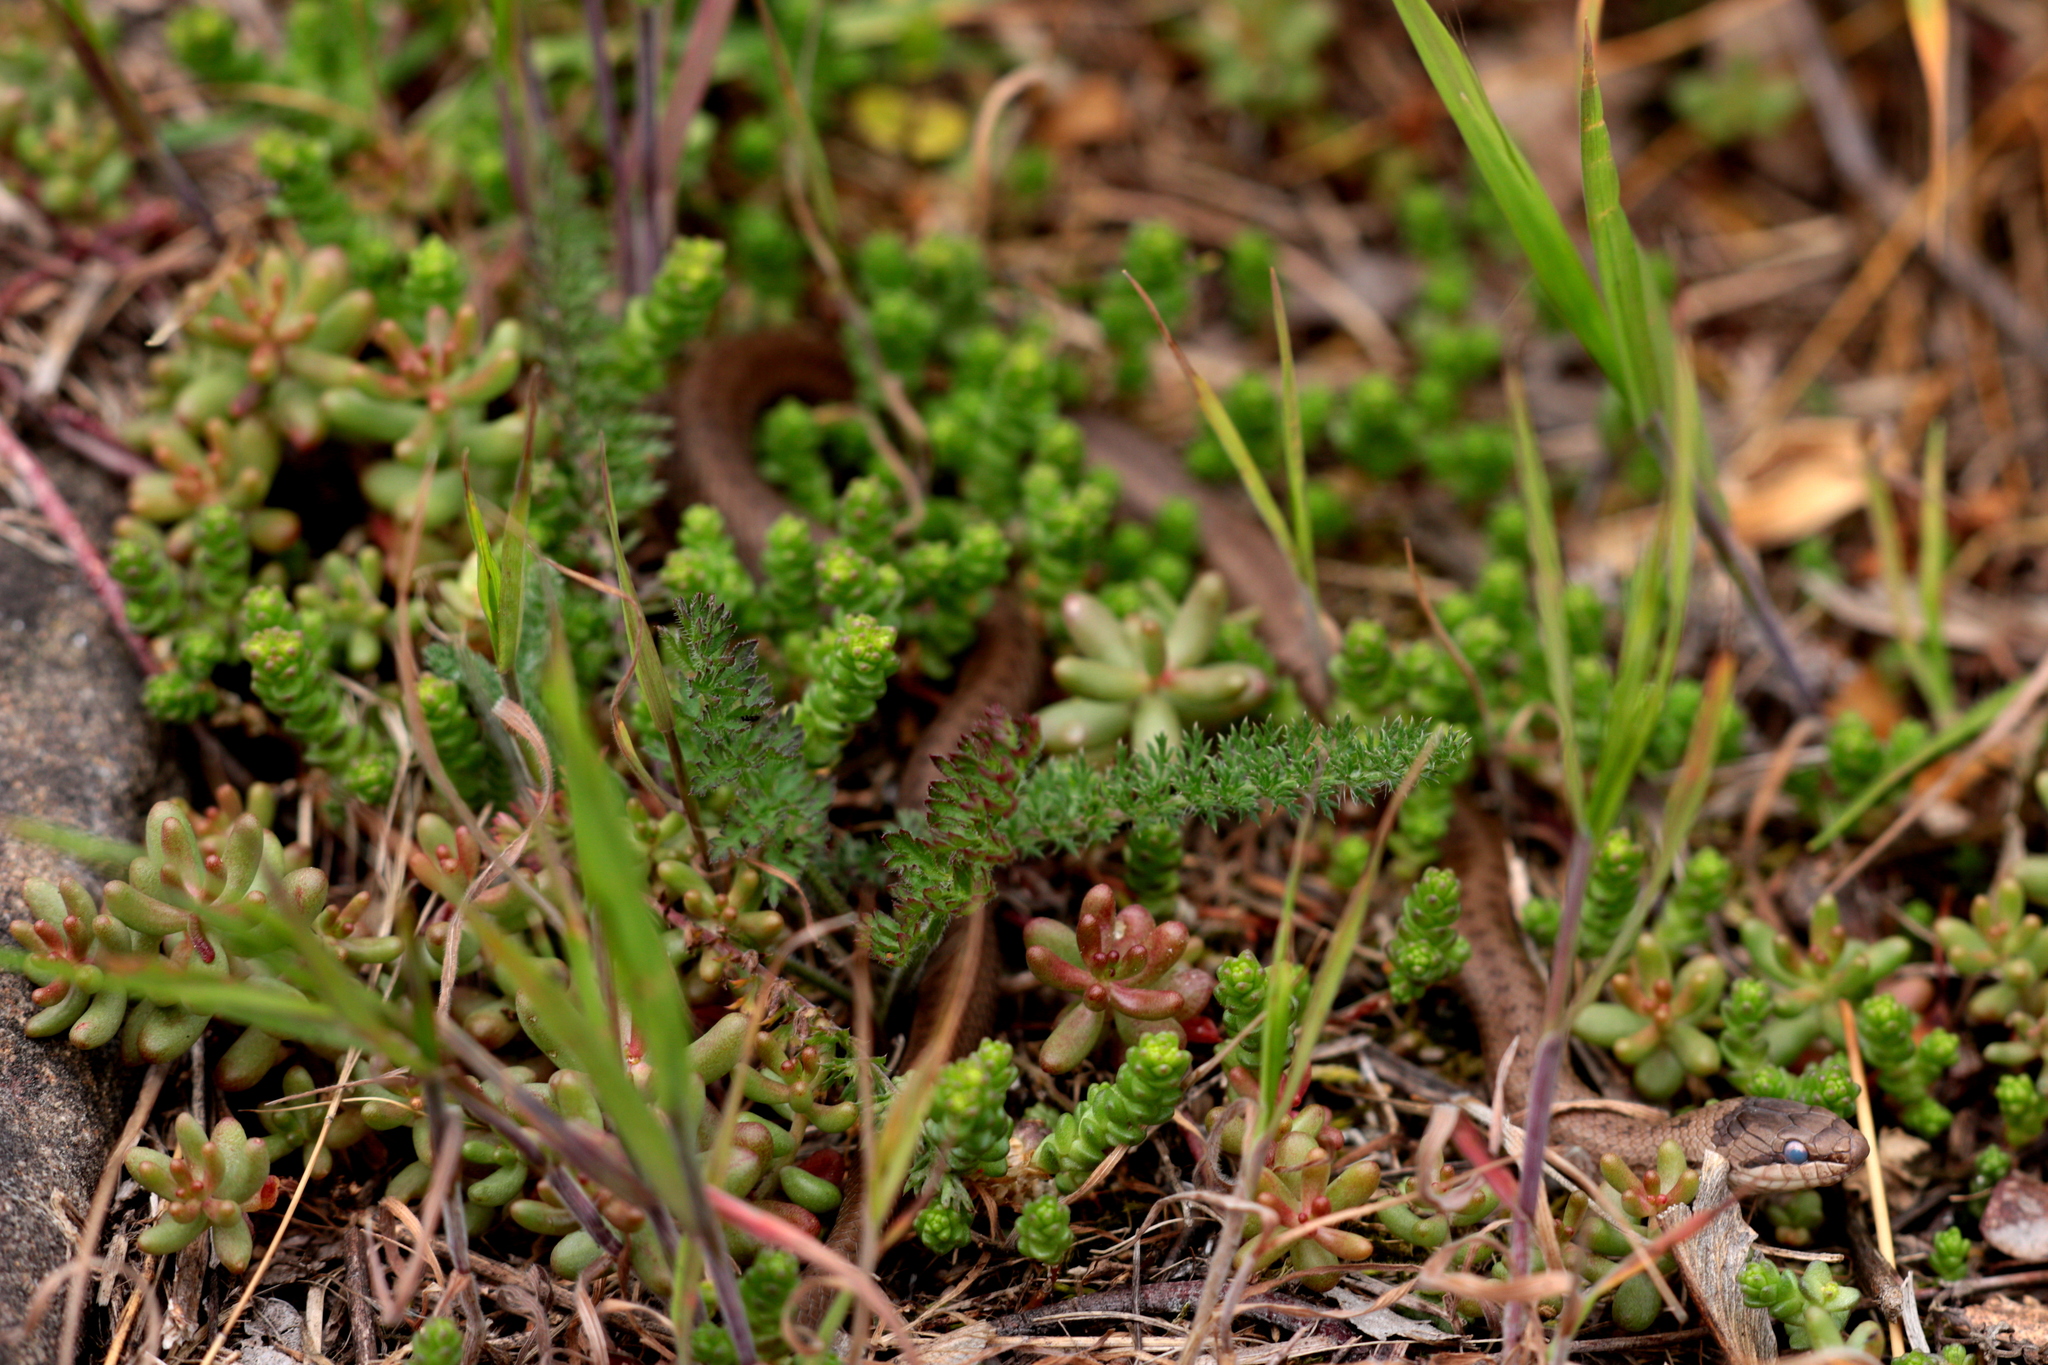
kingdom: Animalia
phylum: Chordata
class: Squamata
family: Colubridae
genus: Coronella
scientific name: Coronella austriaca
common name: Smooth snake
